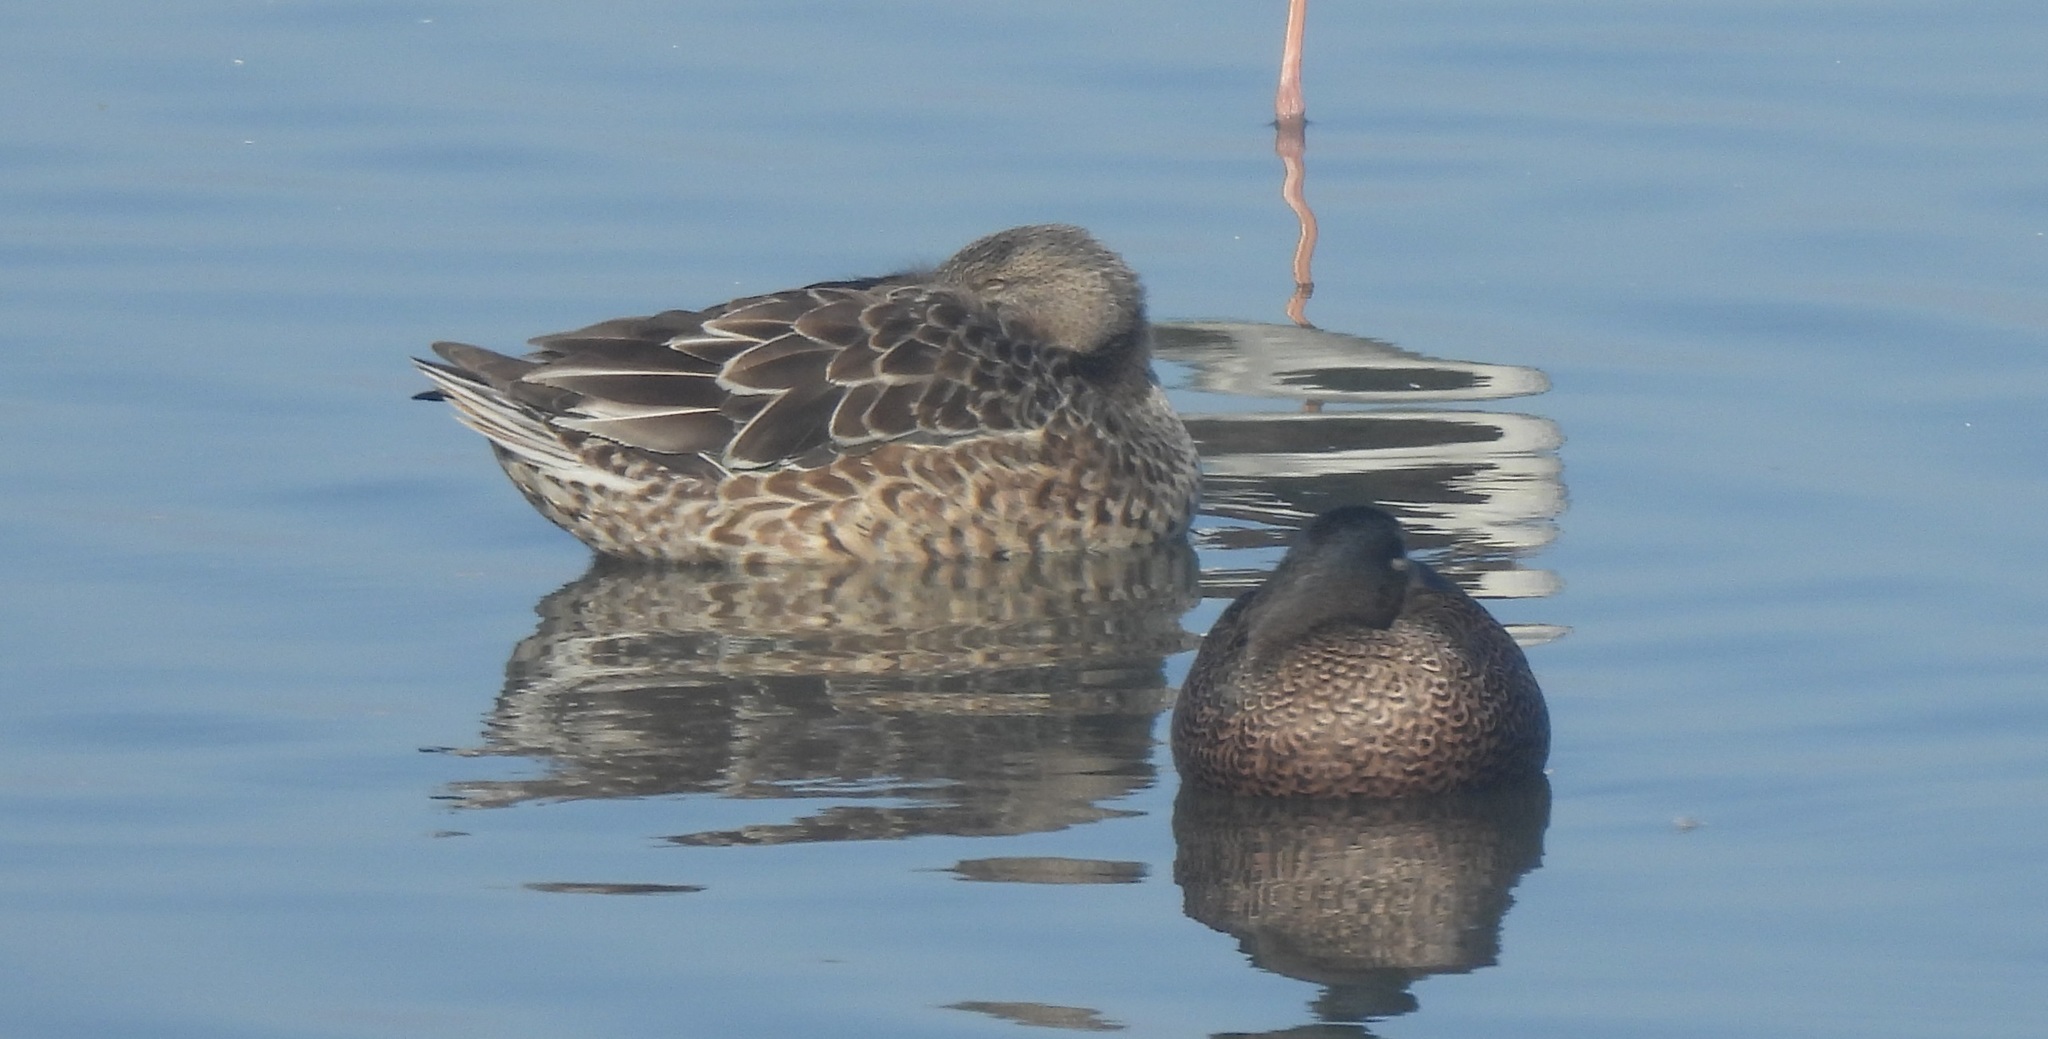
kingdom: Animalia
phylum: Chordata
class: Aves
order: Anseriformes
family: Anatidae
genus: Spatula
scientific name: Spatula discors
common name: Blue-winged teal
